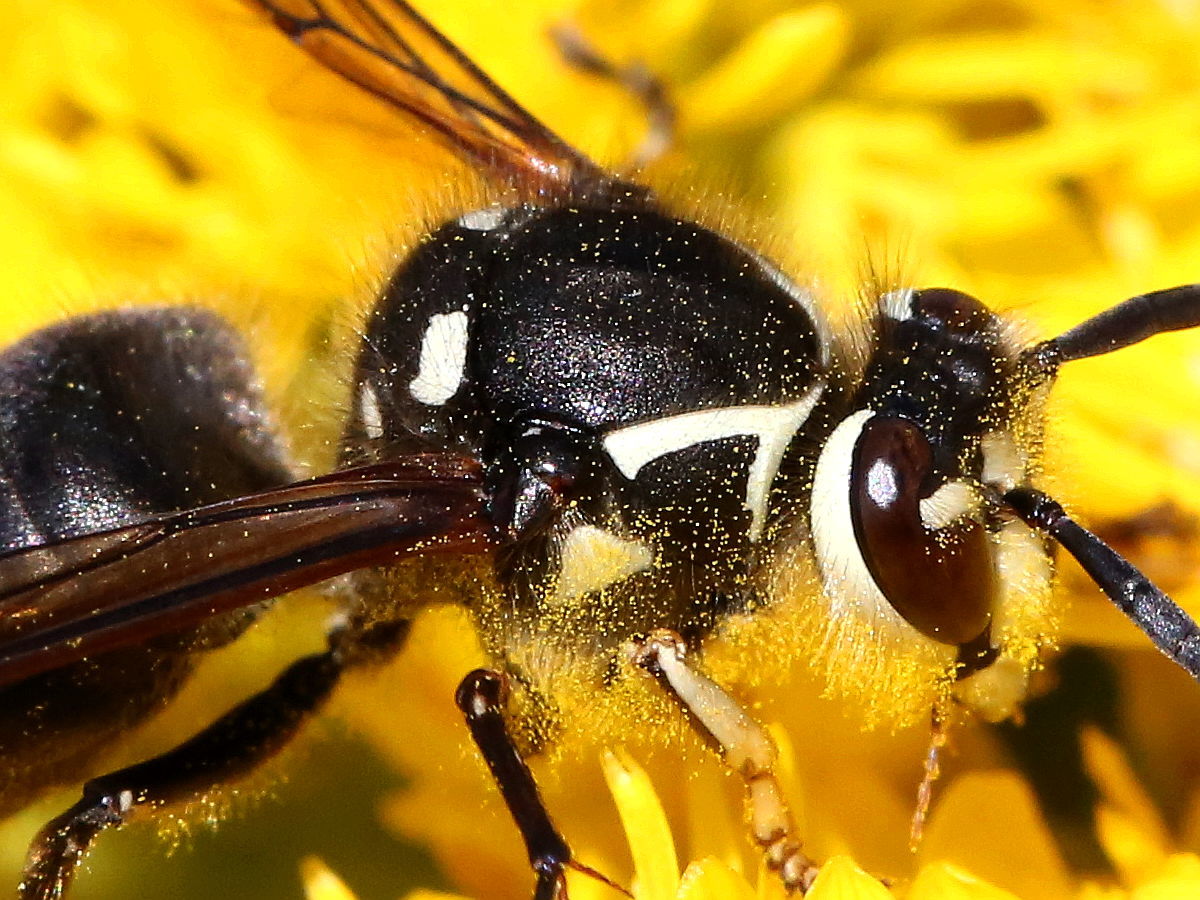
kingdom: Animalia
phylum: Arthropoda
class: Insecta
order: Hymenoptera
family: Vespidae
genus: Dolichovespula
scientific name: Dolichovespula maculata
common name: Bald-faced hornet
